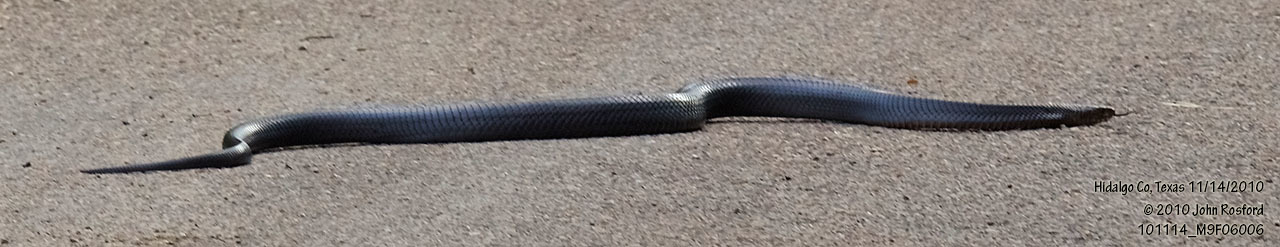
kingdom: Animalia
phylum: Chordata
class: Squamata
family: Colubridae
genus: Drymarchon
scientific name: Drymarchon melanurus
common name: Central american indigo snake
